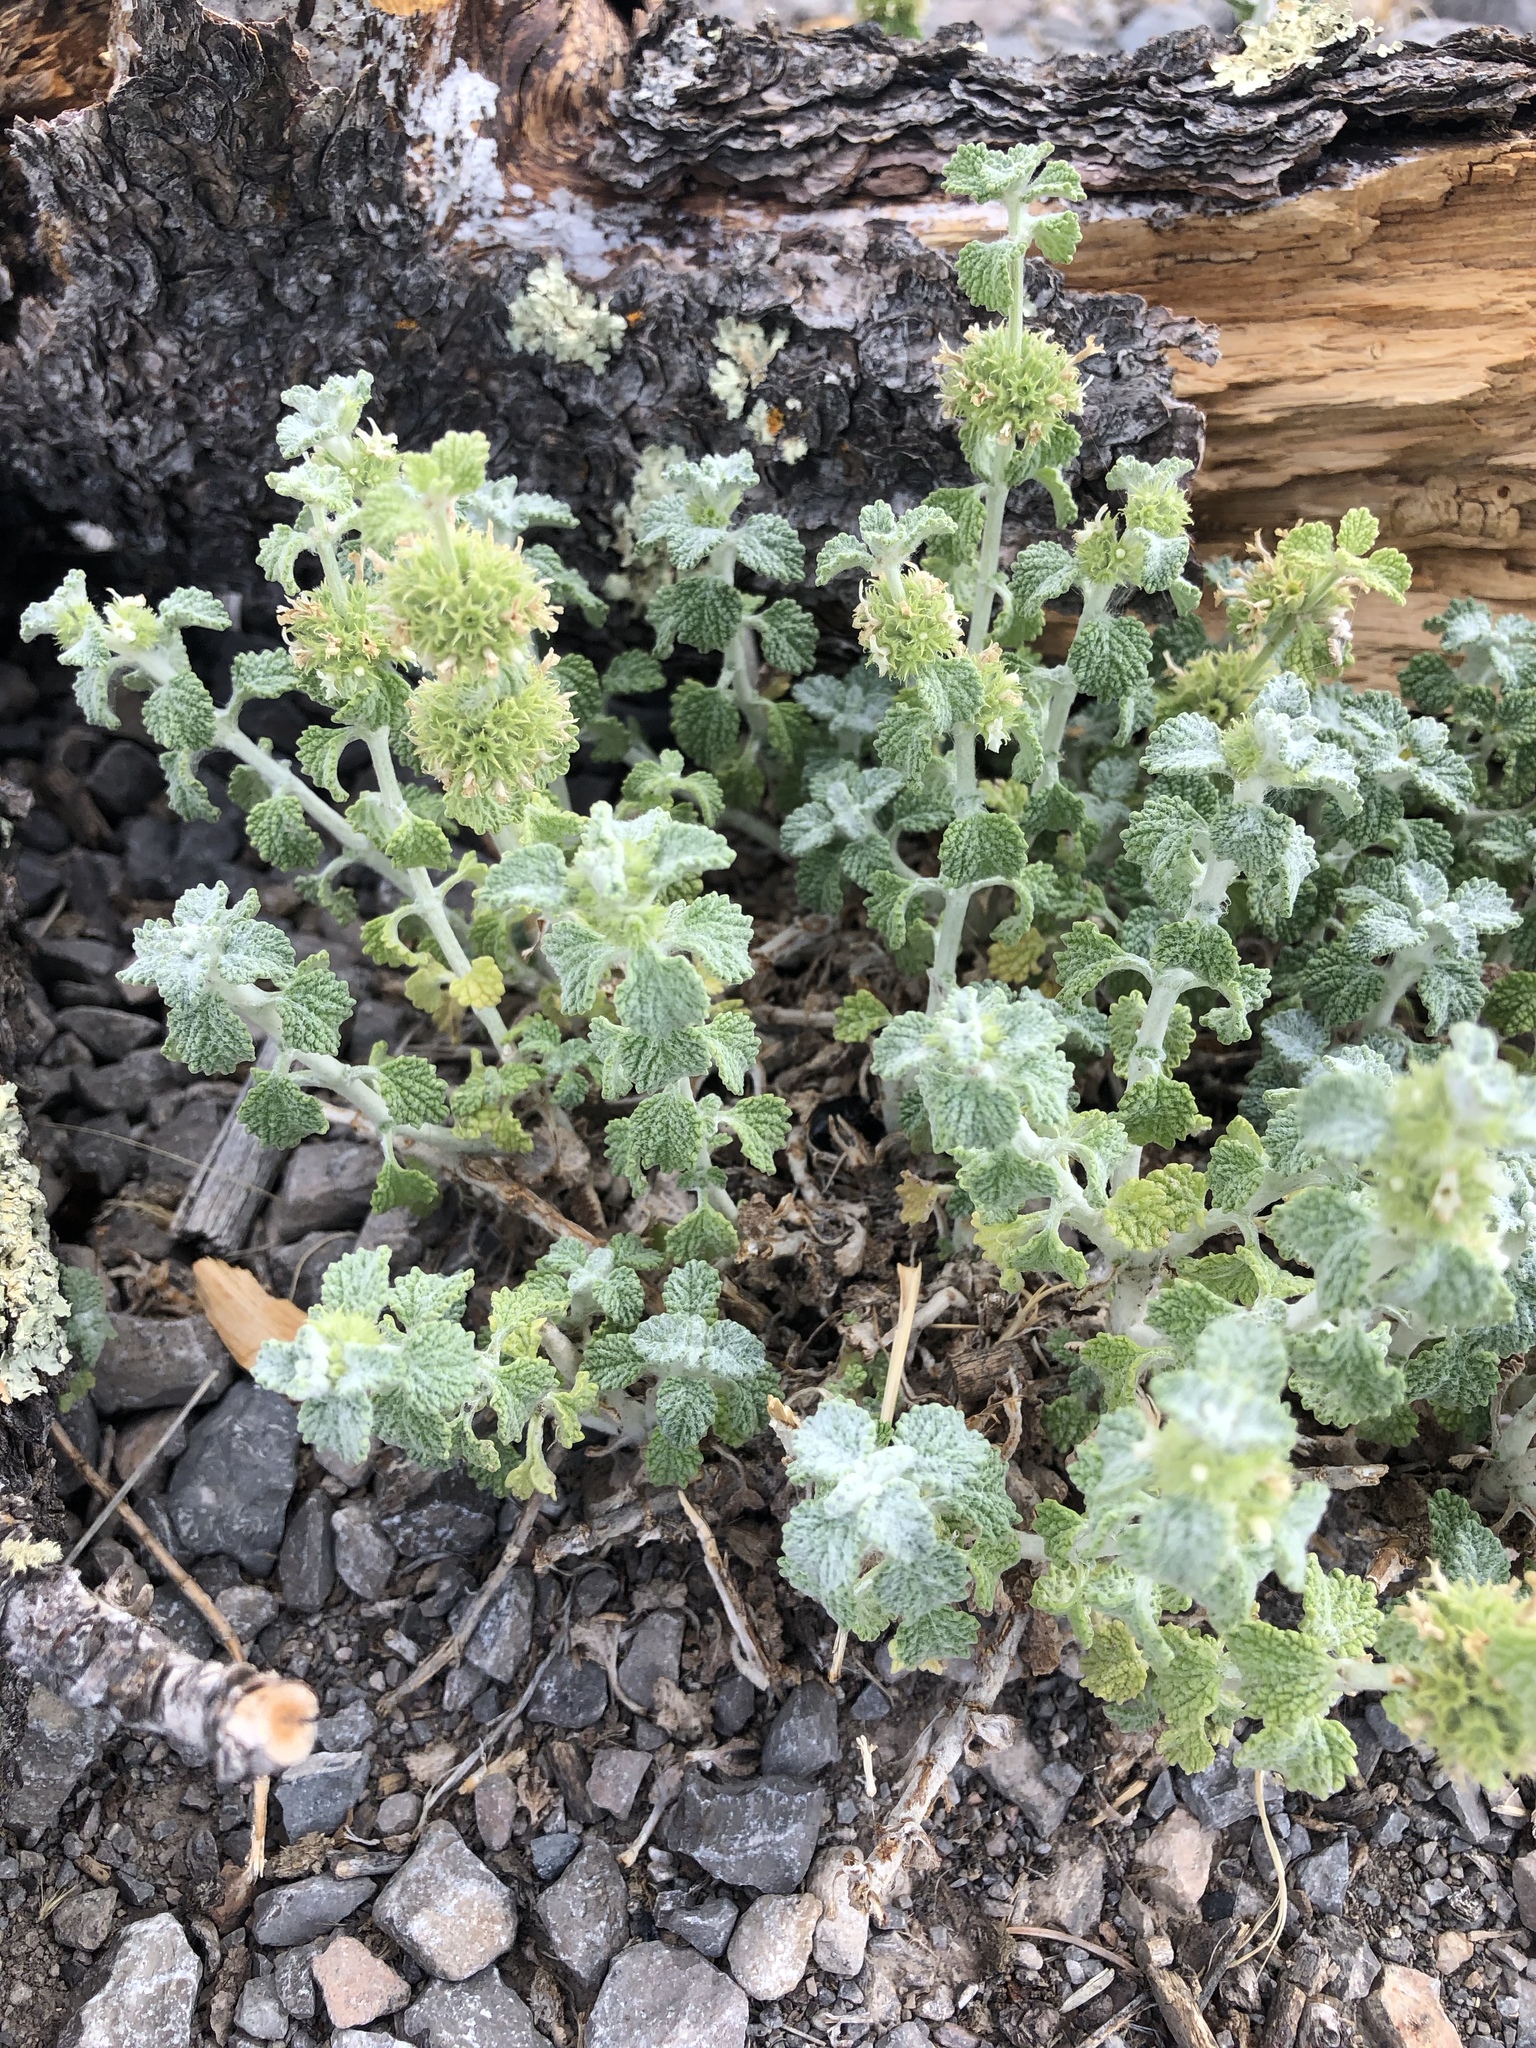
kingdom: Plantae
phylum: Tracheophyta
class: Magnoliopsida
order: Lamiales
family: Lamiaceae
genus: Marrubium
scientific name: Marrubium vulgare
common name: Horehound
